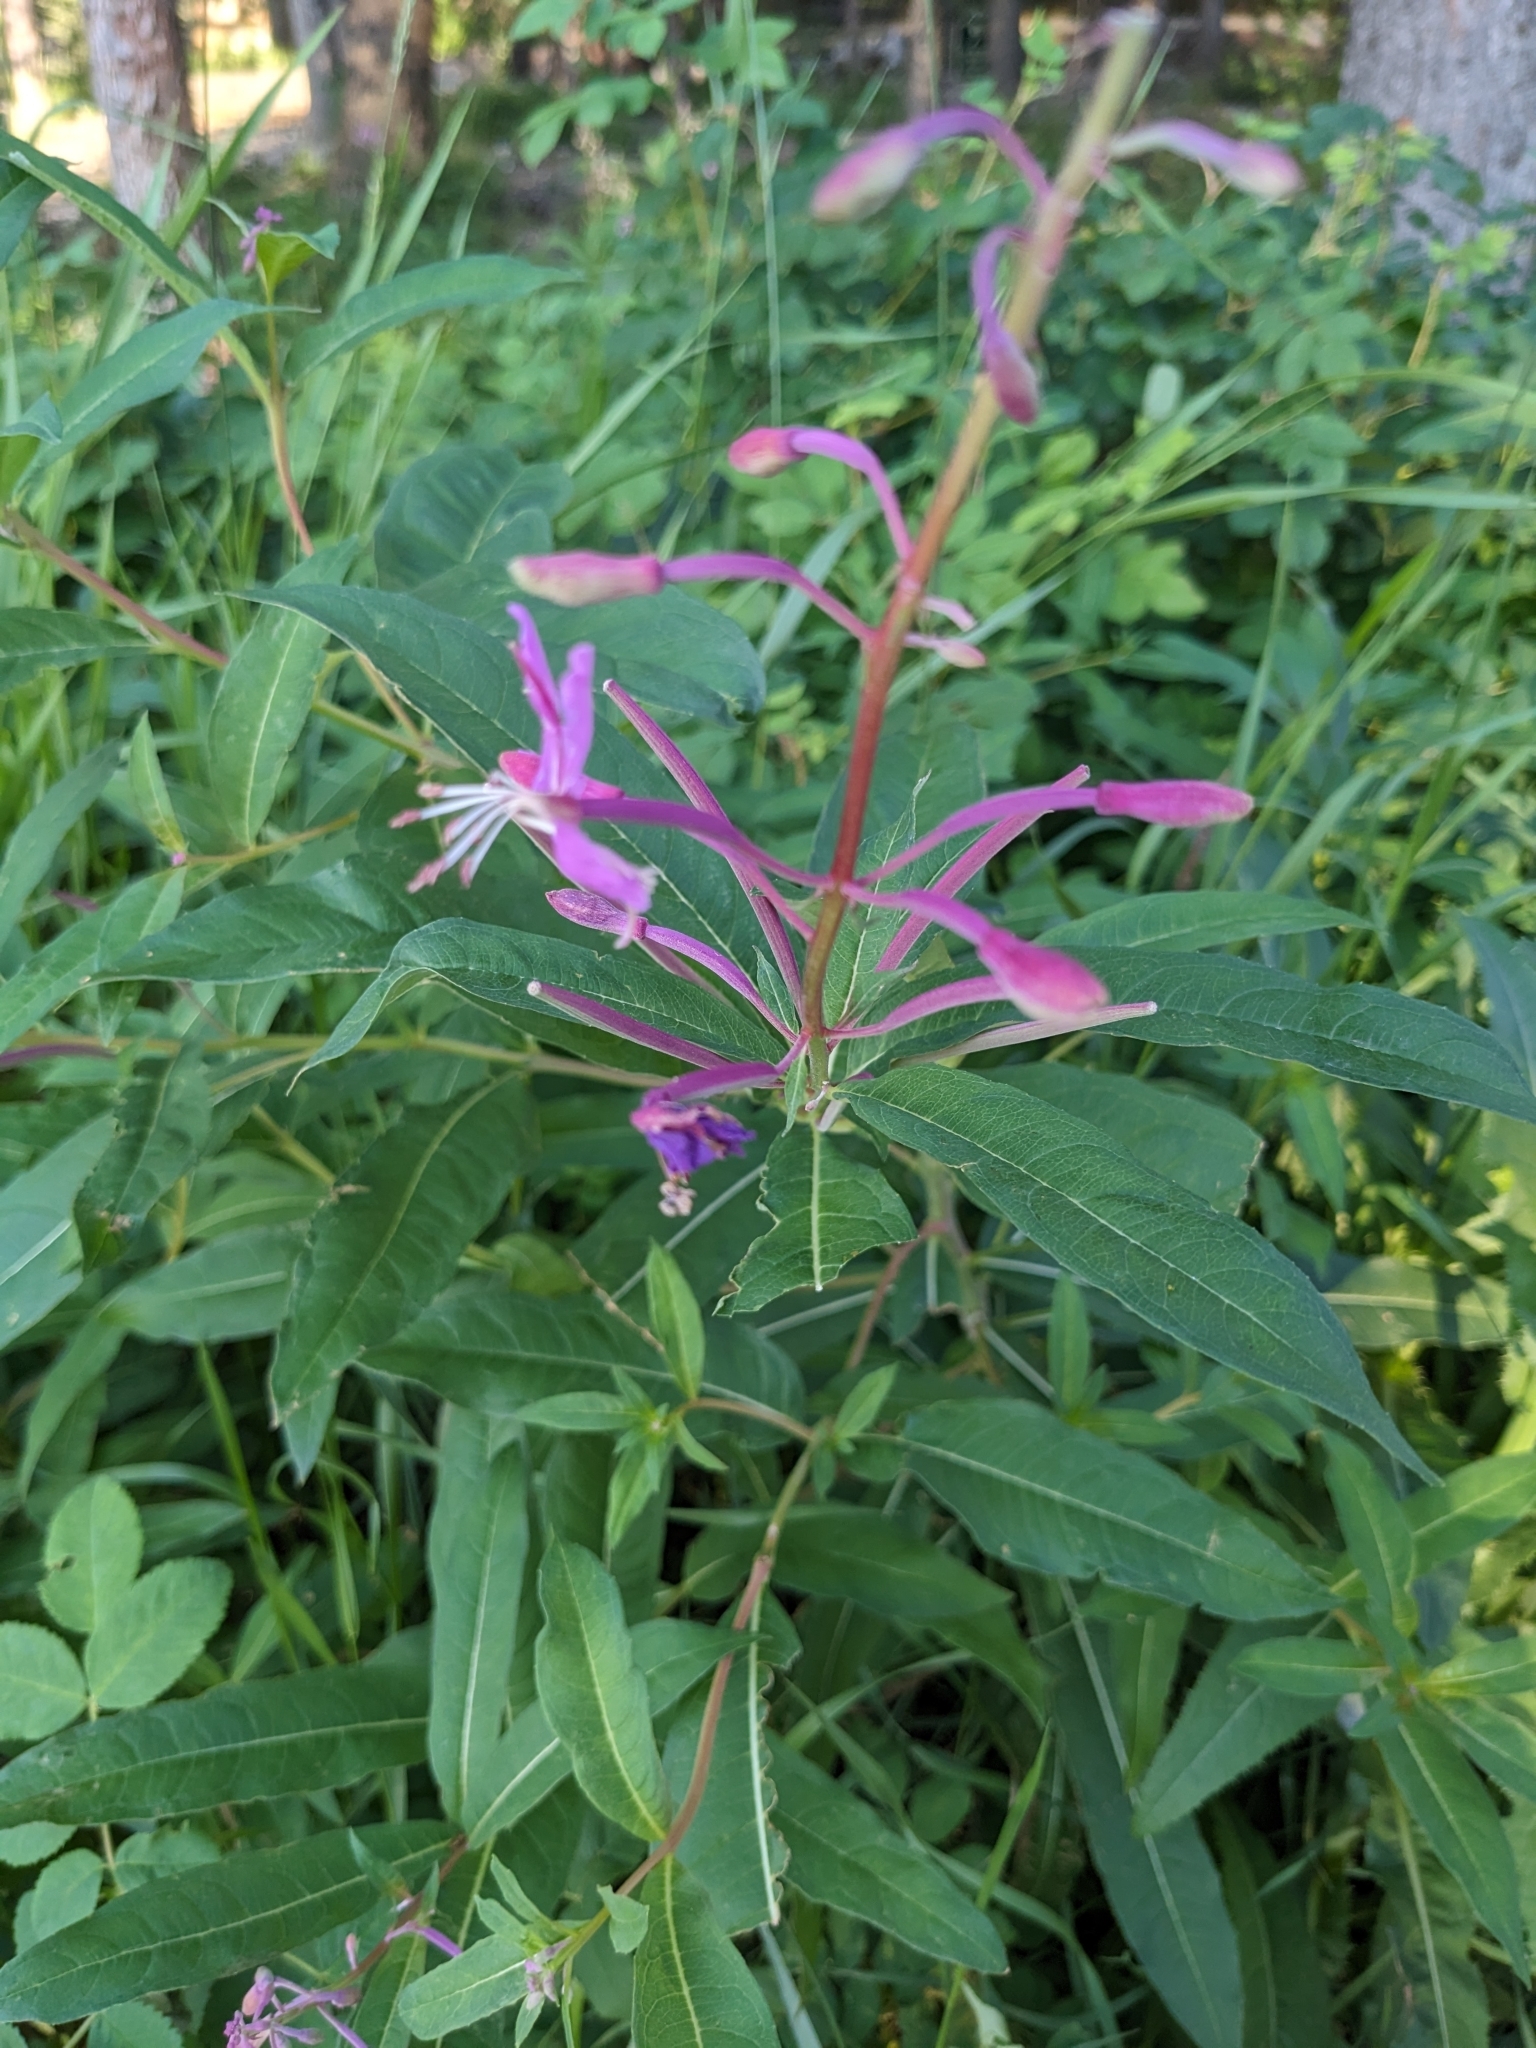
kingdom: Plantae
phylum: Tracheophyta
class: Magnoliopsida
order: Myrtales
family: Onagraceae
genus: Chamaenerion
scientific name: Chamaenerion angustifolium
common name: Fireweed
